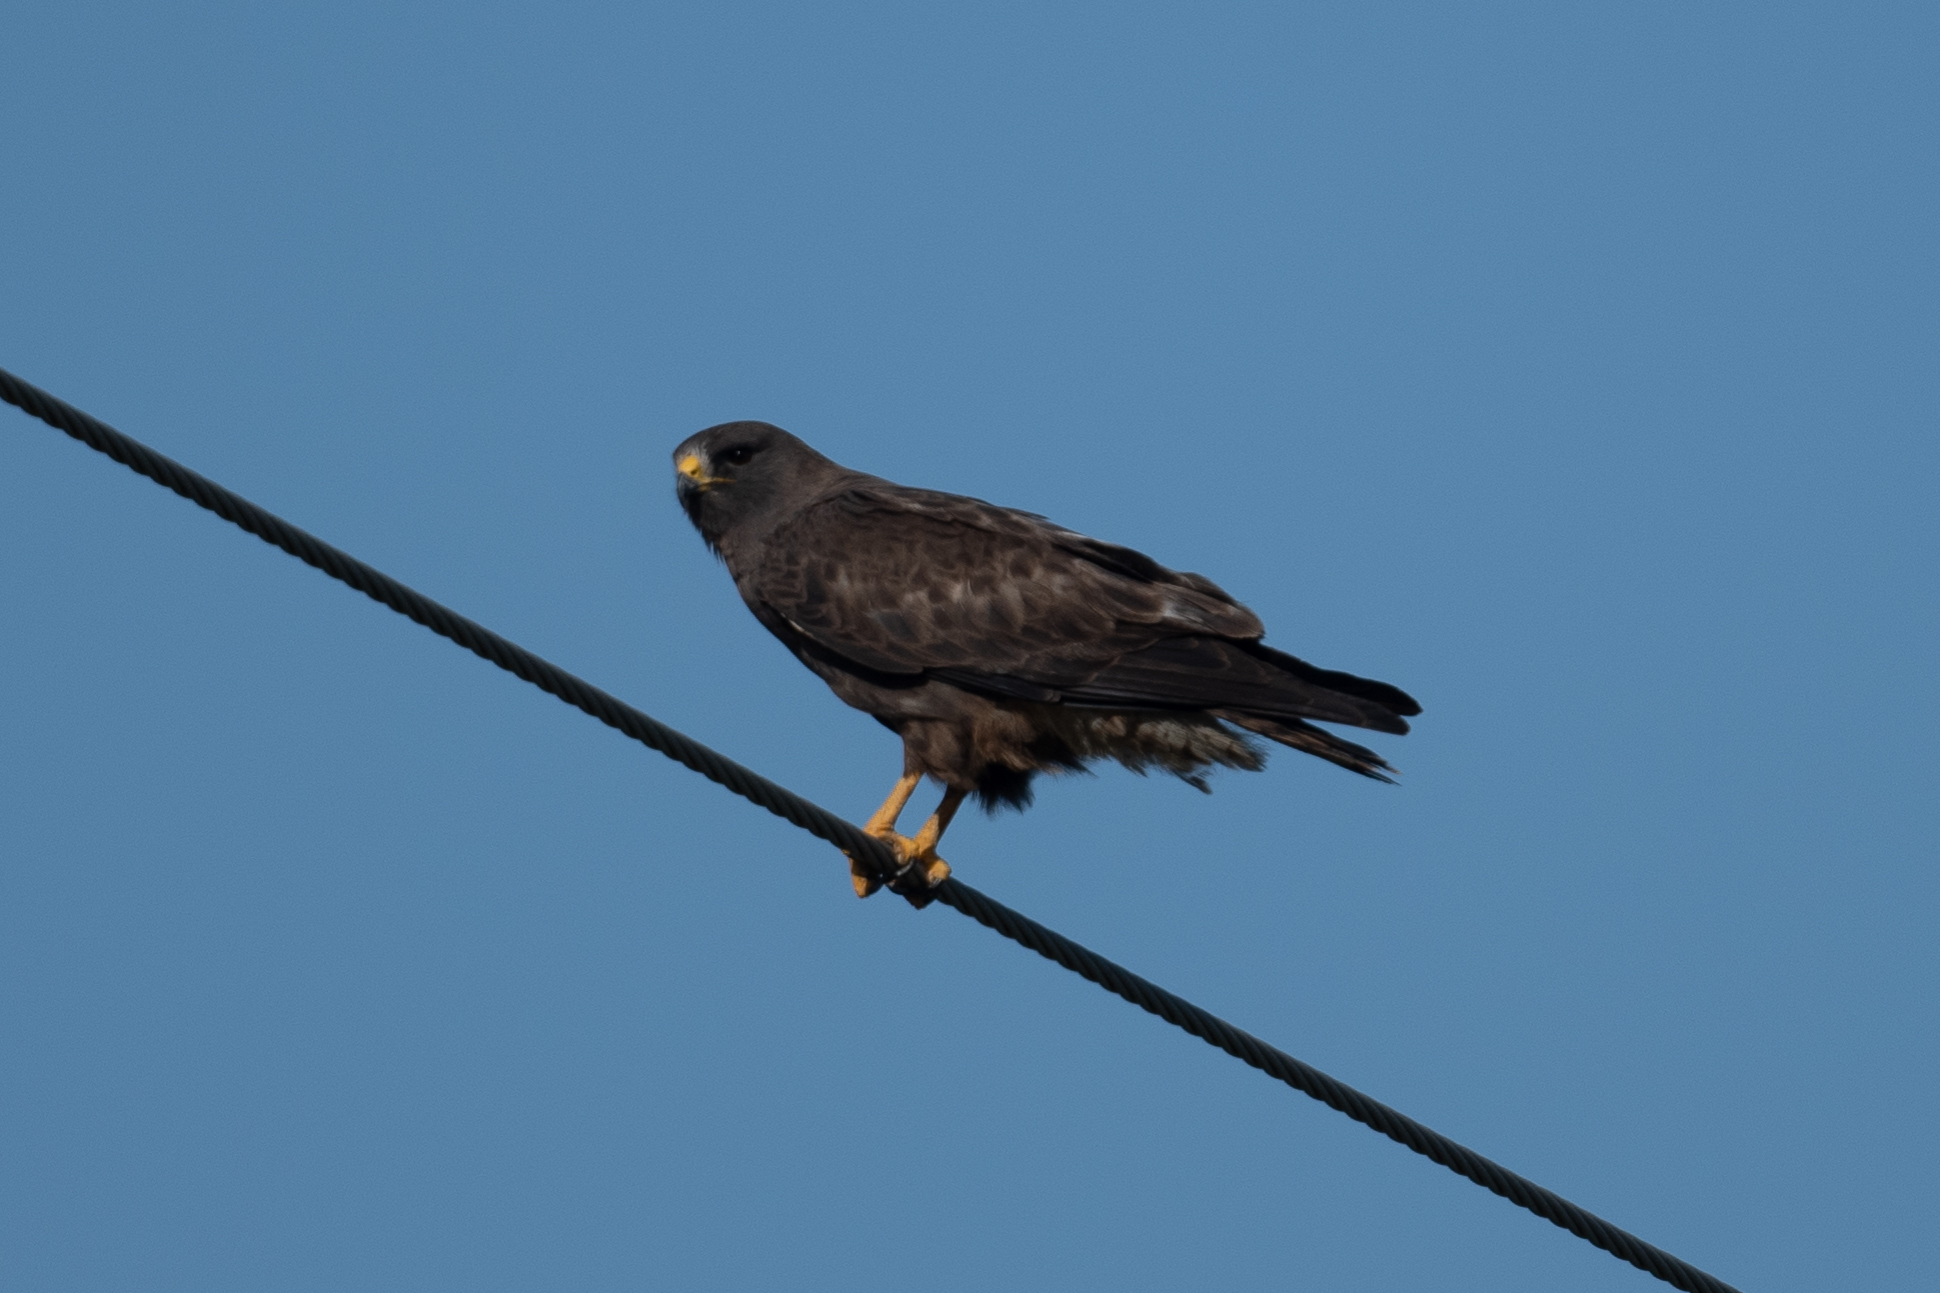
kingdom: Animalia
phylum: Chordata
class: Aves
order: Accipitriformes
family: Accipitridae
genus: Buteo
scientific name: Buteo swainsoni
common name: Swainson's hawk
